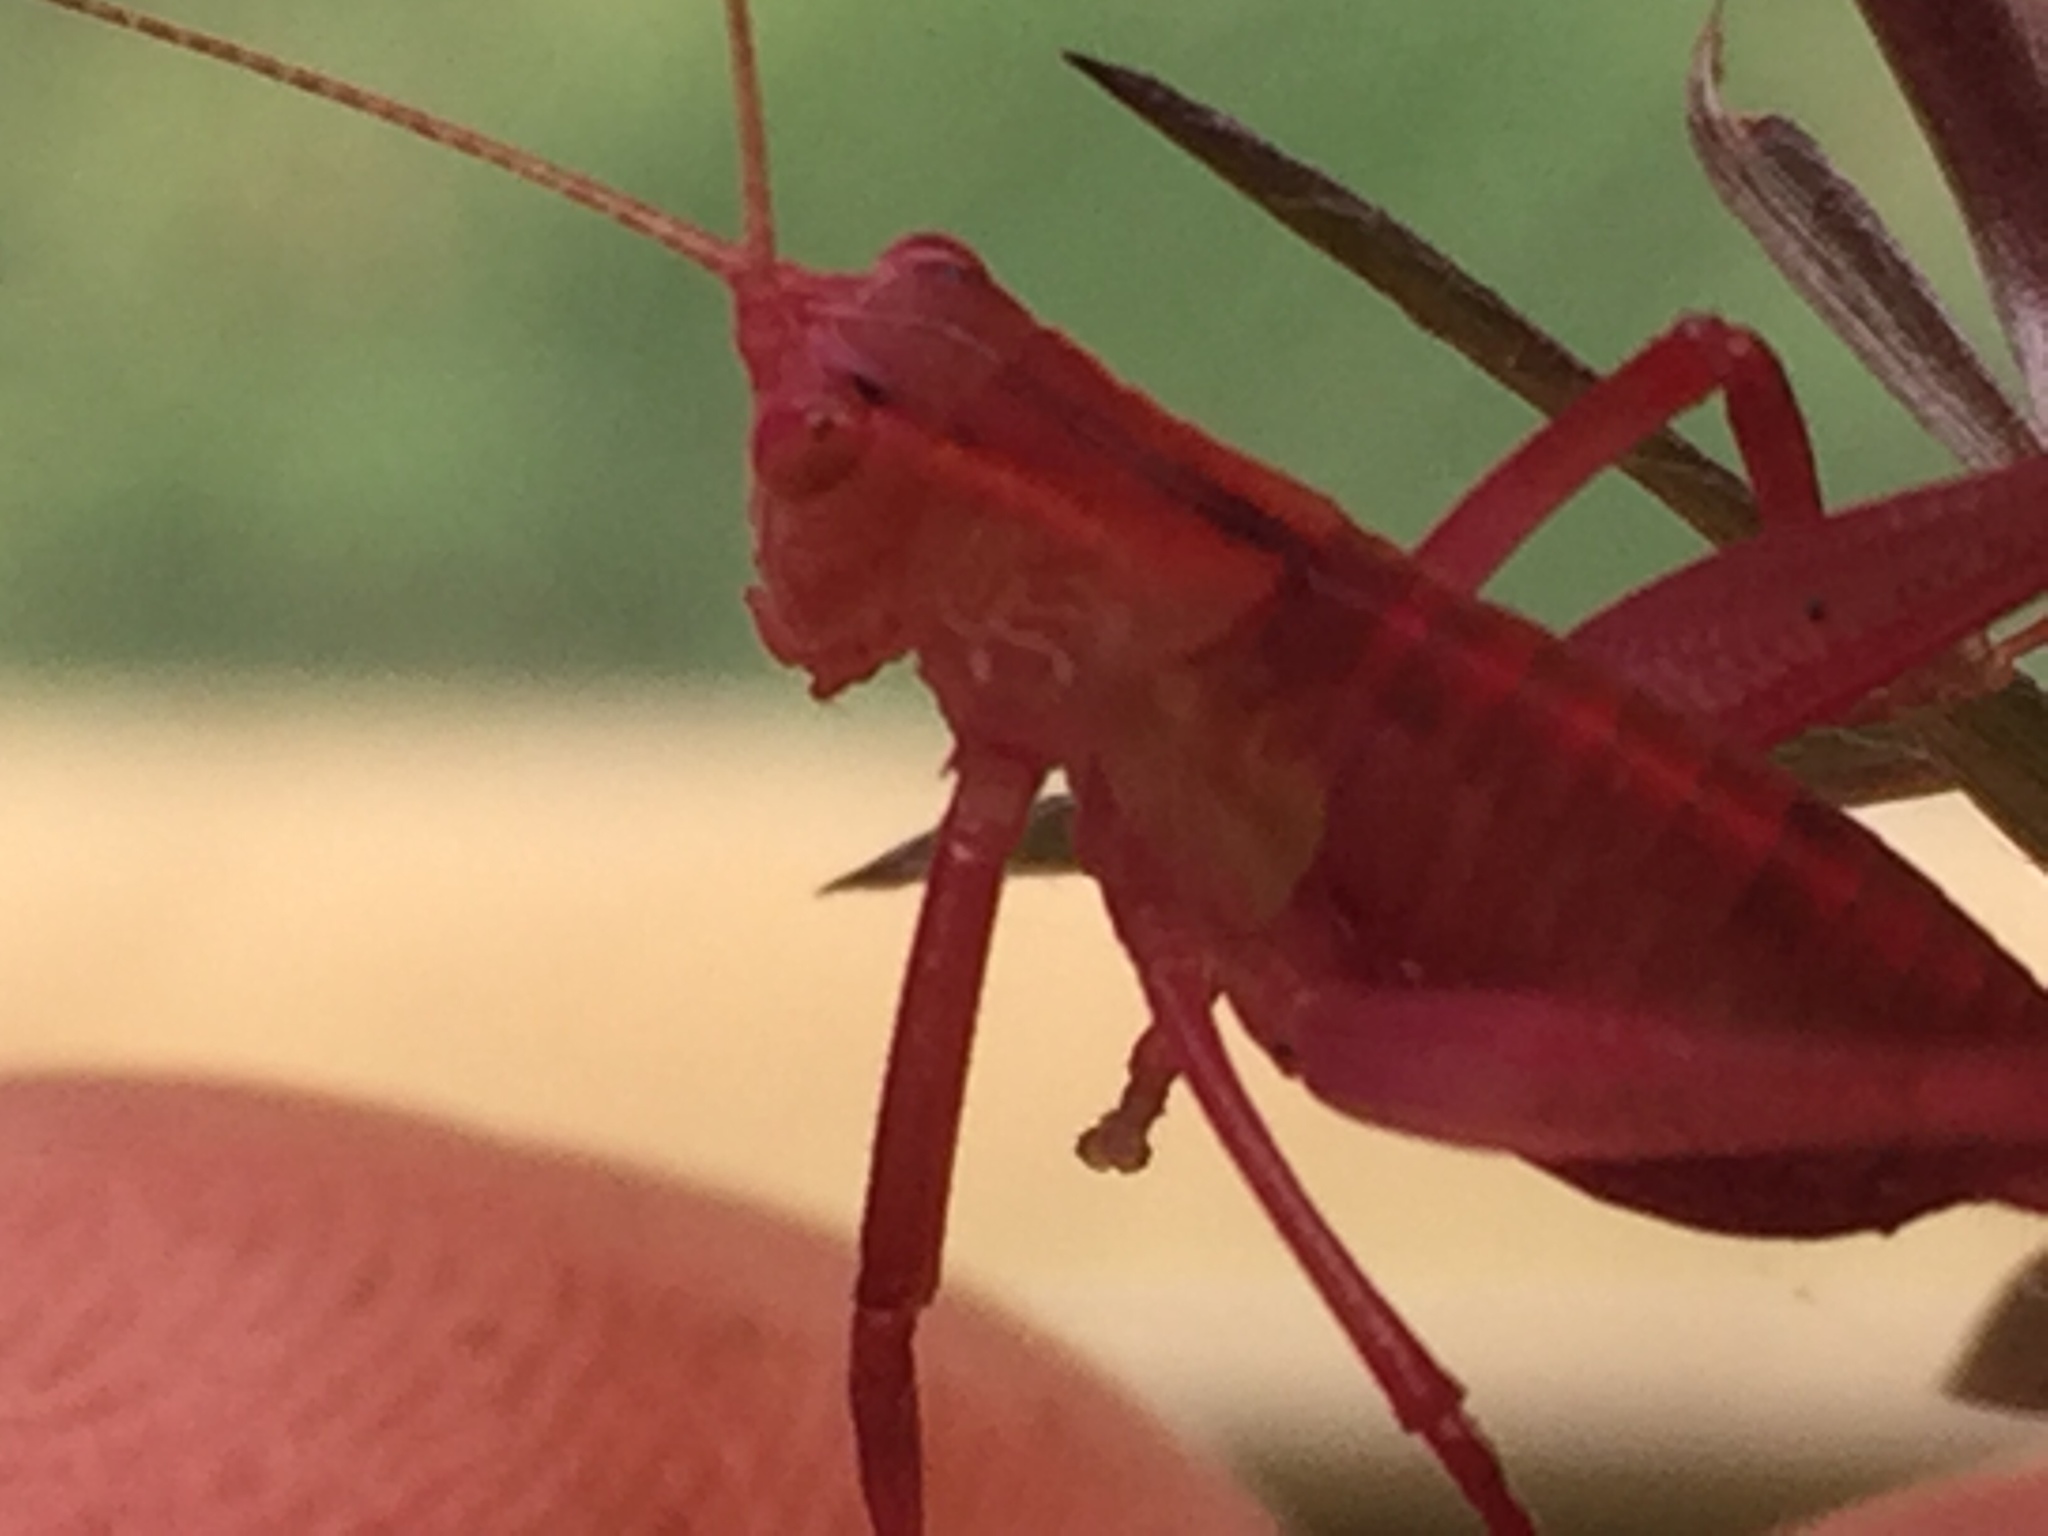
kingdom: Animalia
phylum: Arthropoda
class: Insecta
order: Orthoptera
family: Tettigoniidae
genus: Caedicia
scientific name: Caedicia simplex
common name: Common garden katydid
